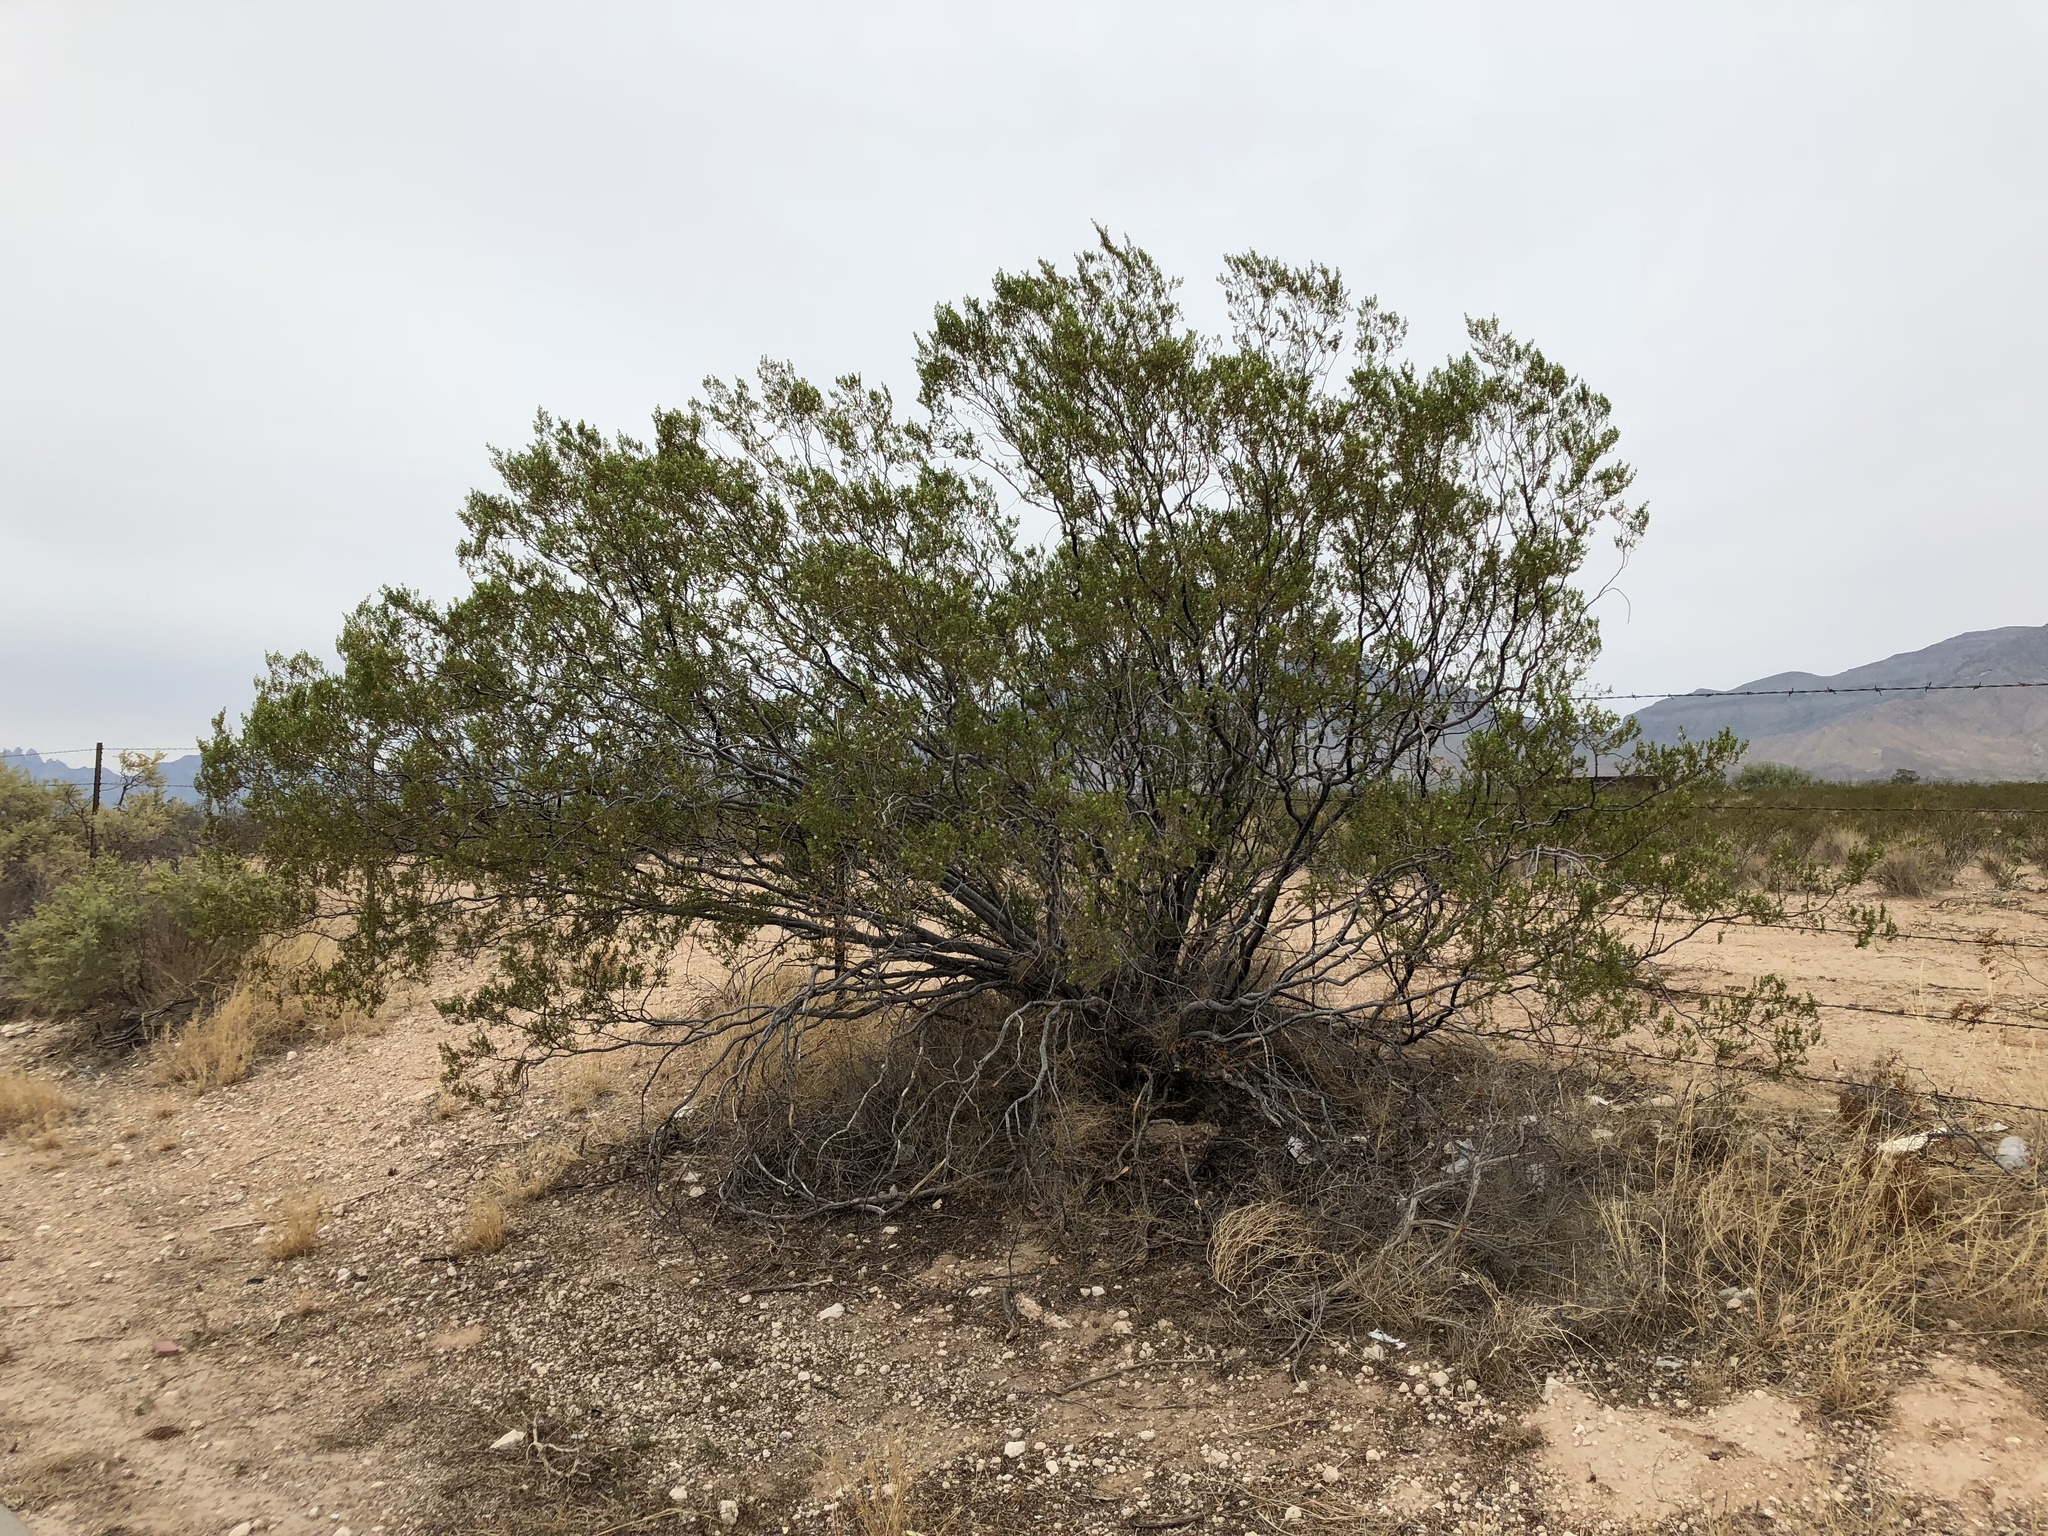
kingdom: Plantae
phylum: Tracheophyta
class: Magnoliopsida
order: Zygophyllales
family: Zygophyllaceae
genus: Larrea
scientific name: Larrea tridentata
